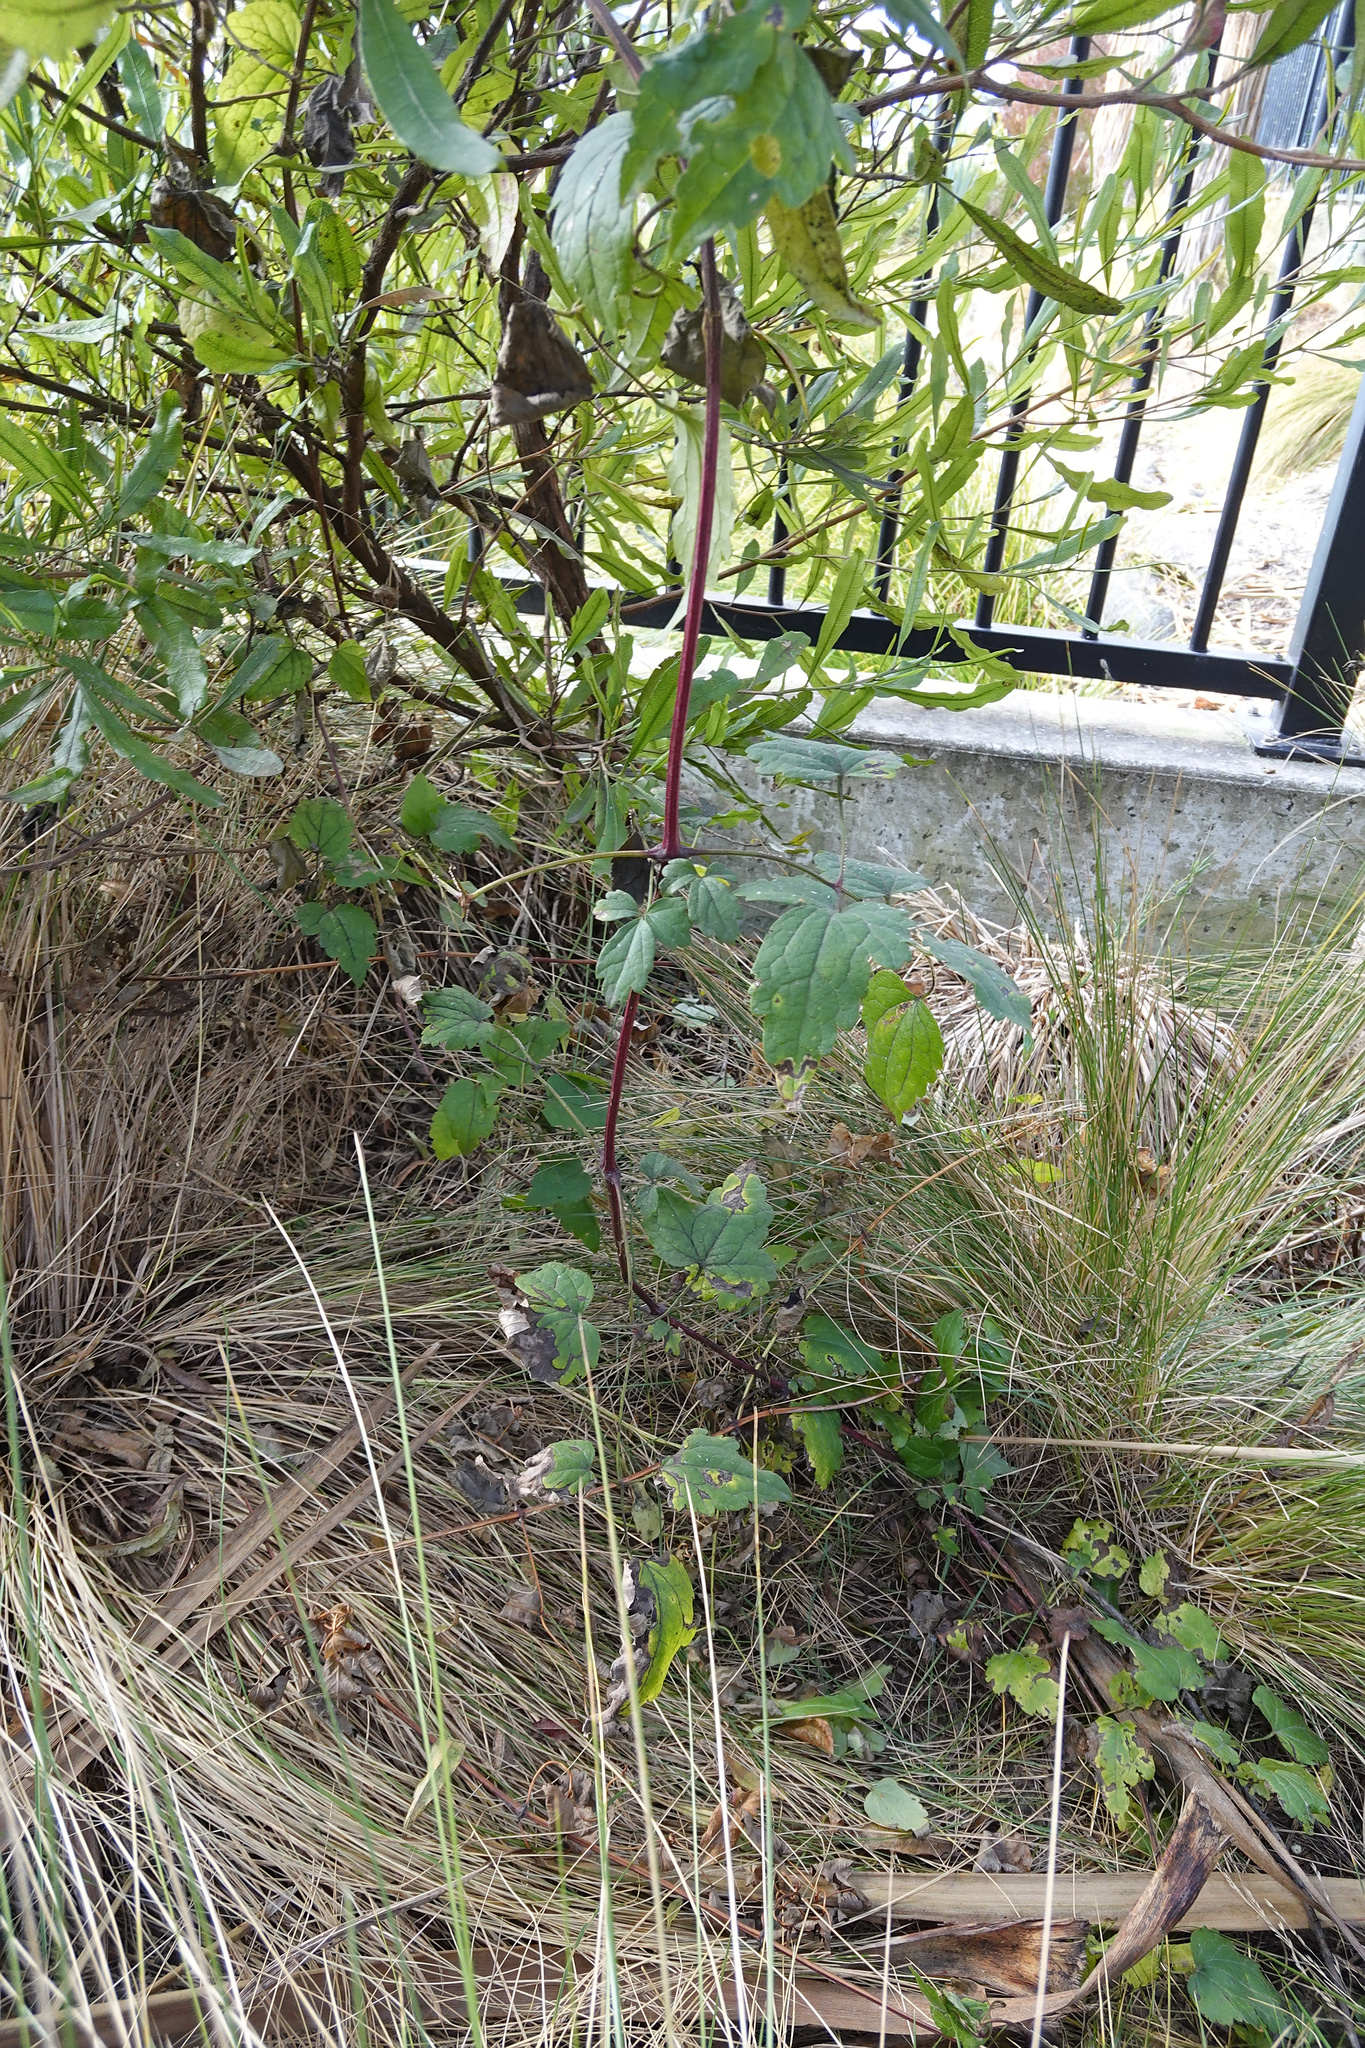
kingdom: Plantae
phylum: Tracheophyta
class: Magnoliopsida
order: Ranunculales
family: Ranunculaceae
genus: Clematis
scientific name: Clematis vitalba
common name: Evergreen clematis
